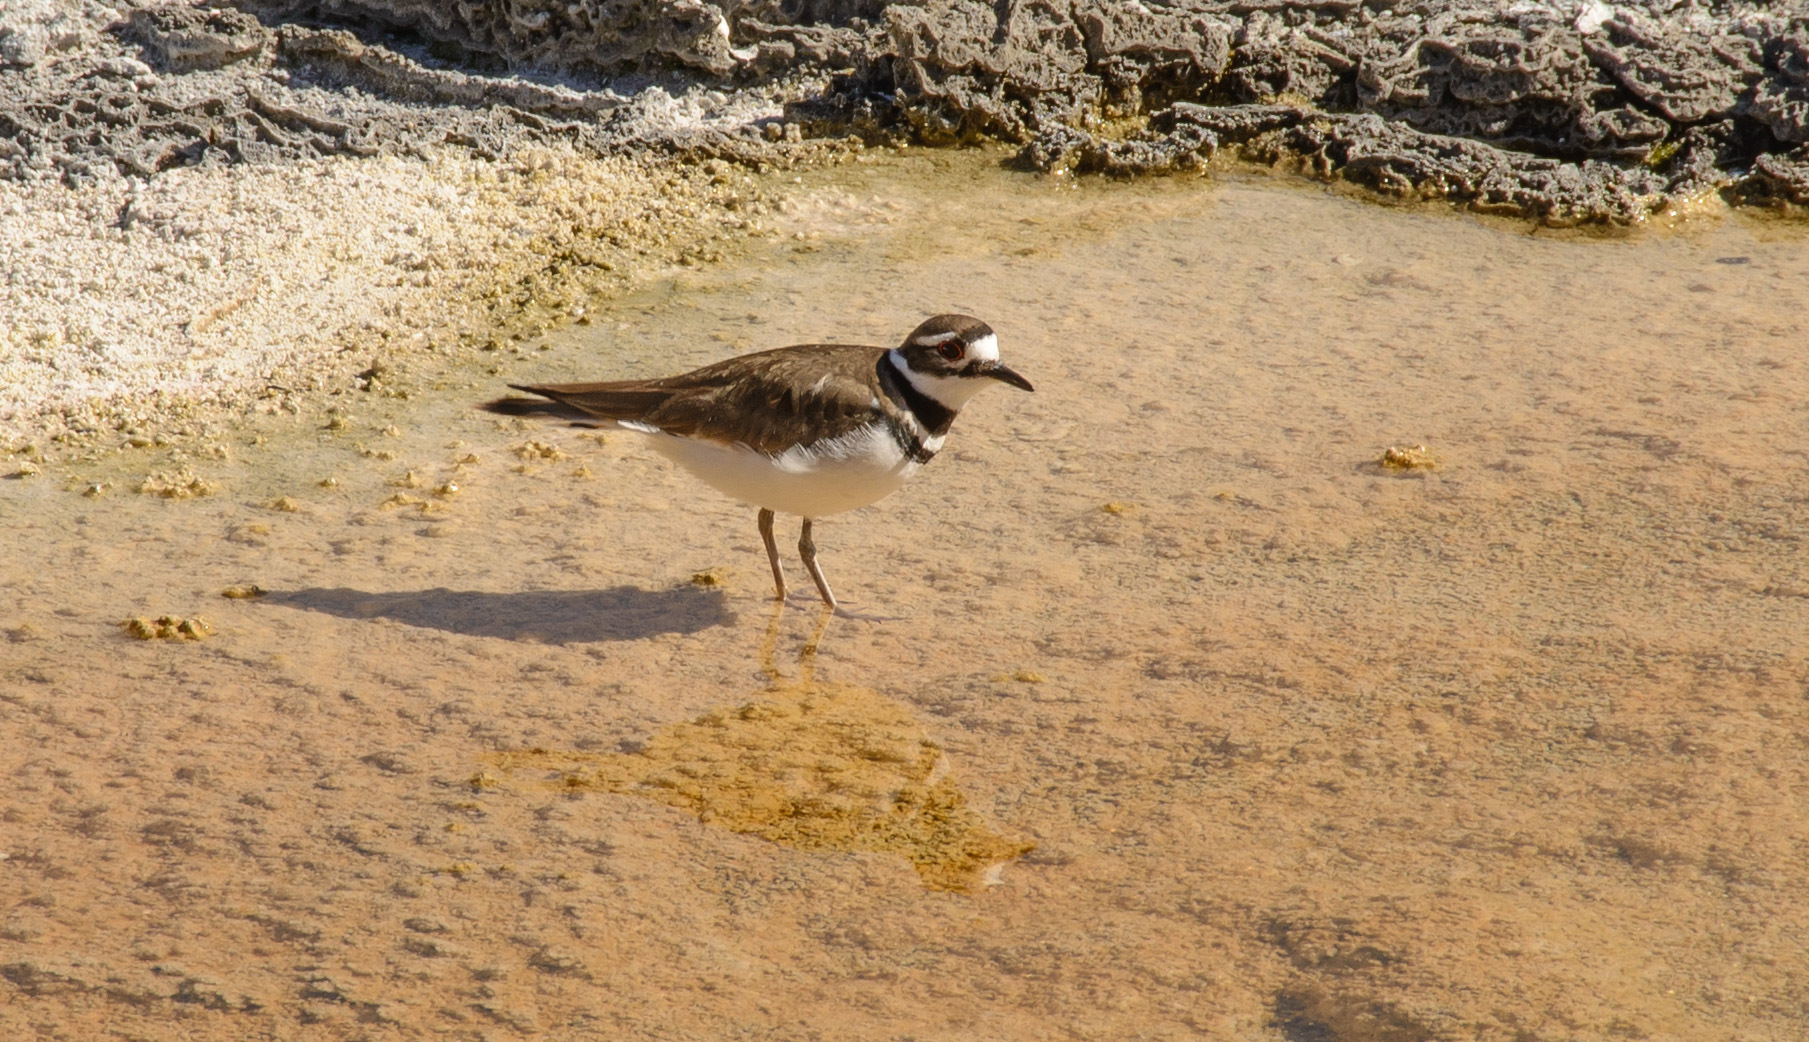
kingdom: Animalia
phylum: Chordata
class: Aves
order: Charadriiformes
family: Charadriidae
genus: Charadrius
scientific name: Charadrius vociferus
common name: Killdeer
